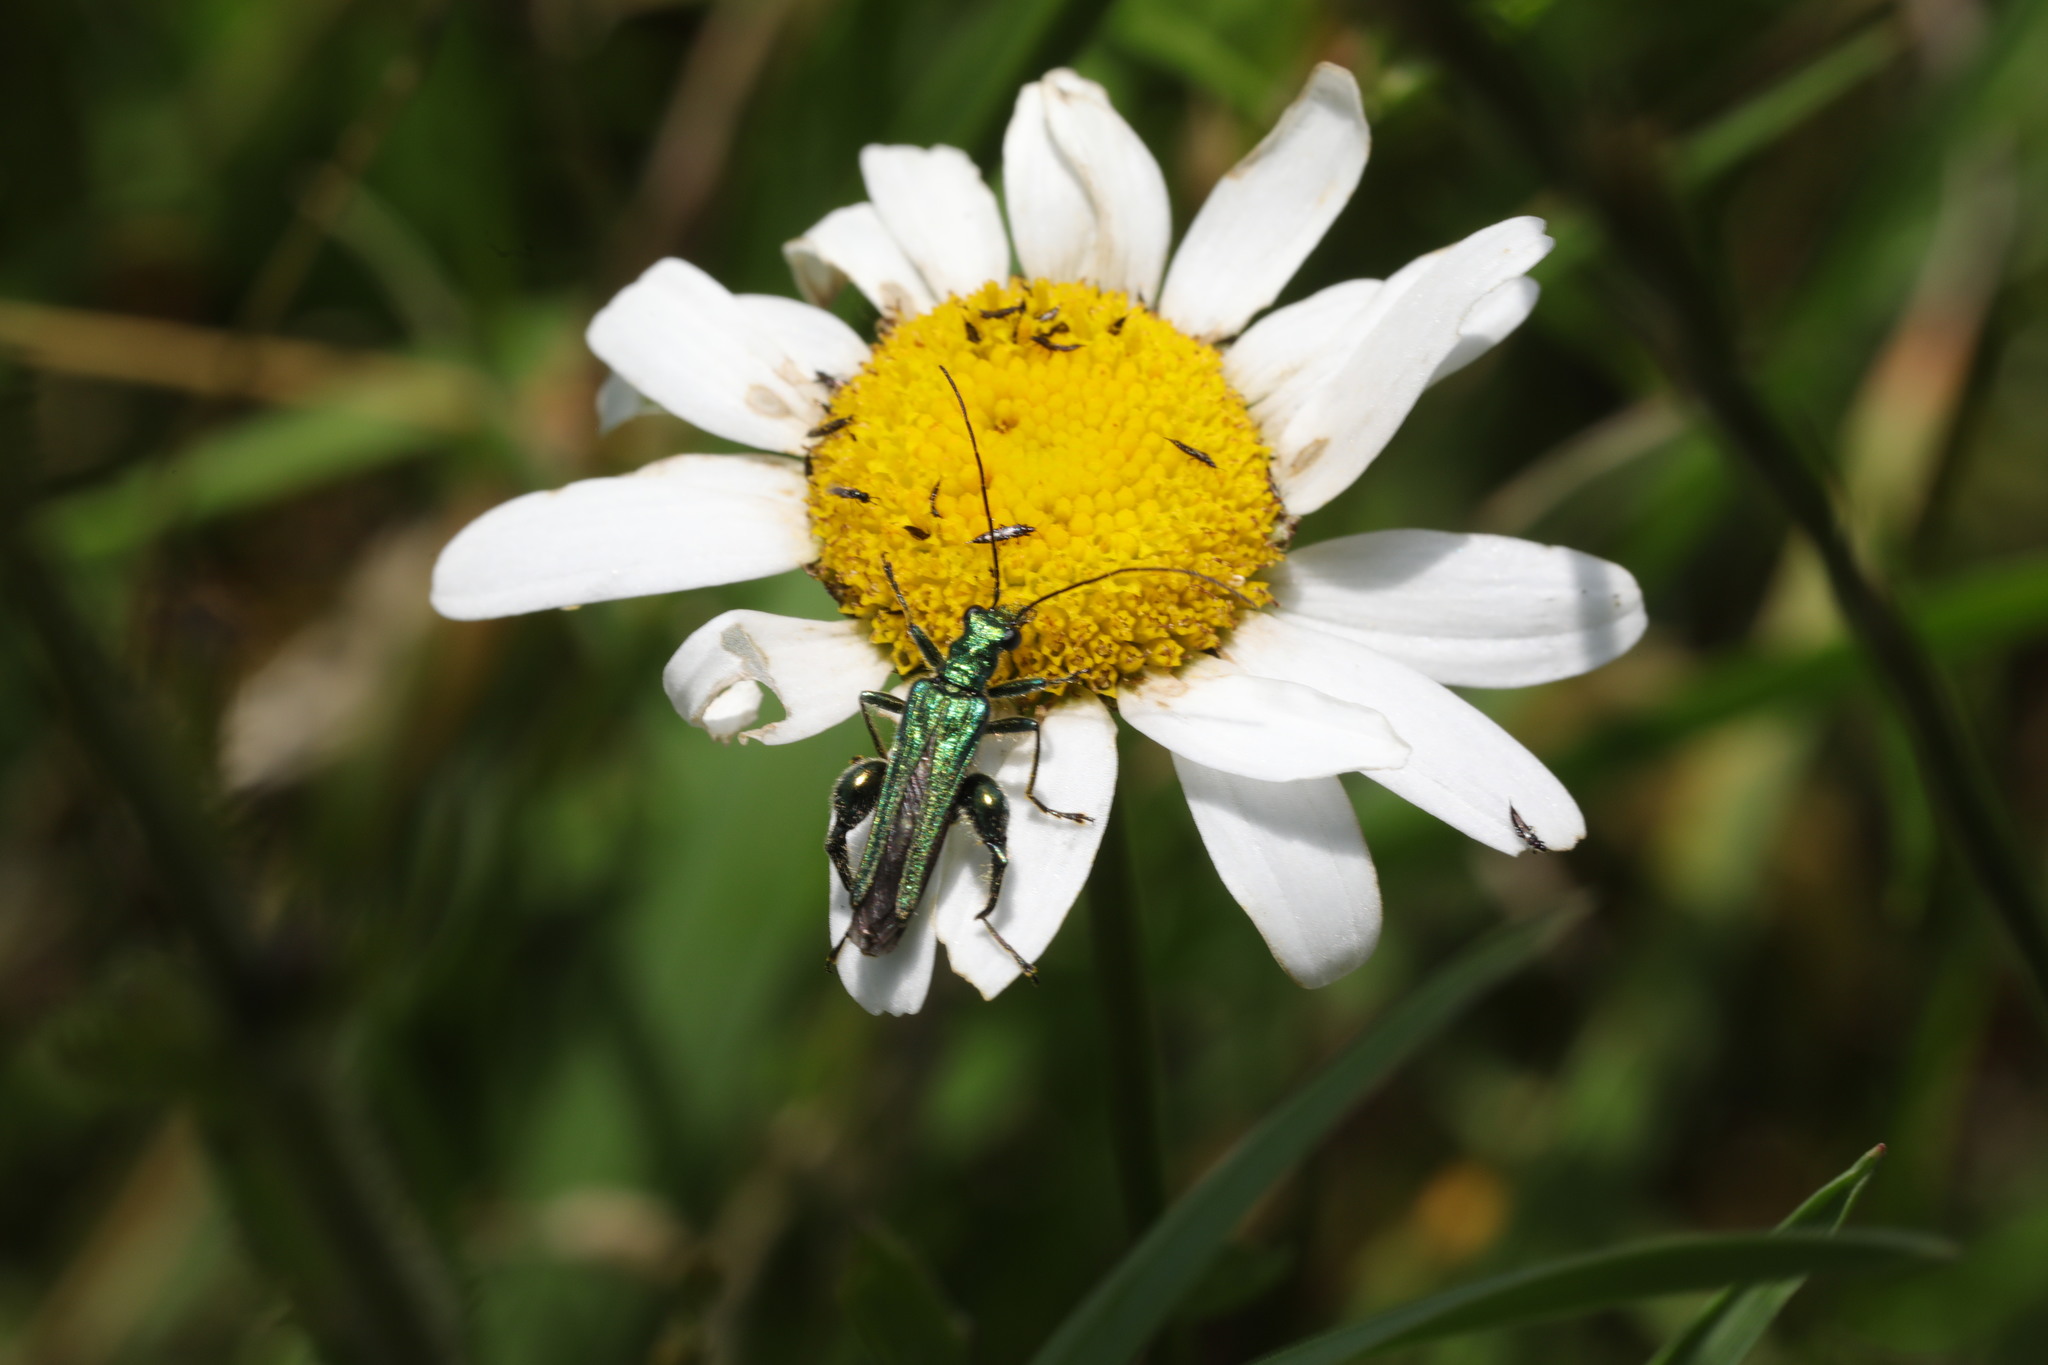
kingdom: Animalia
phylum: Arthropoda
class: Insecta
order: Coleoptera
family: Oedemeridae
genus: Oedemera
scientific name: Oedemera nobilis
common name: Swollen-thighed beetle
